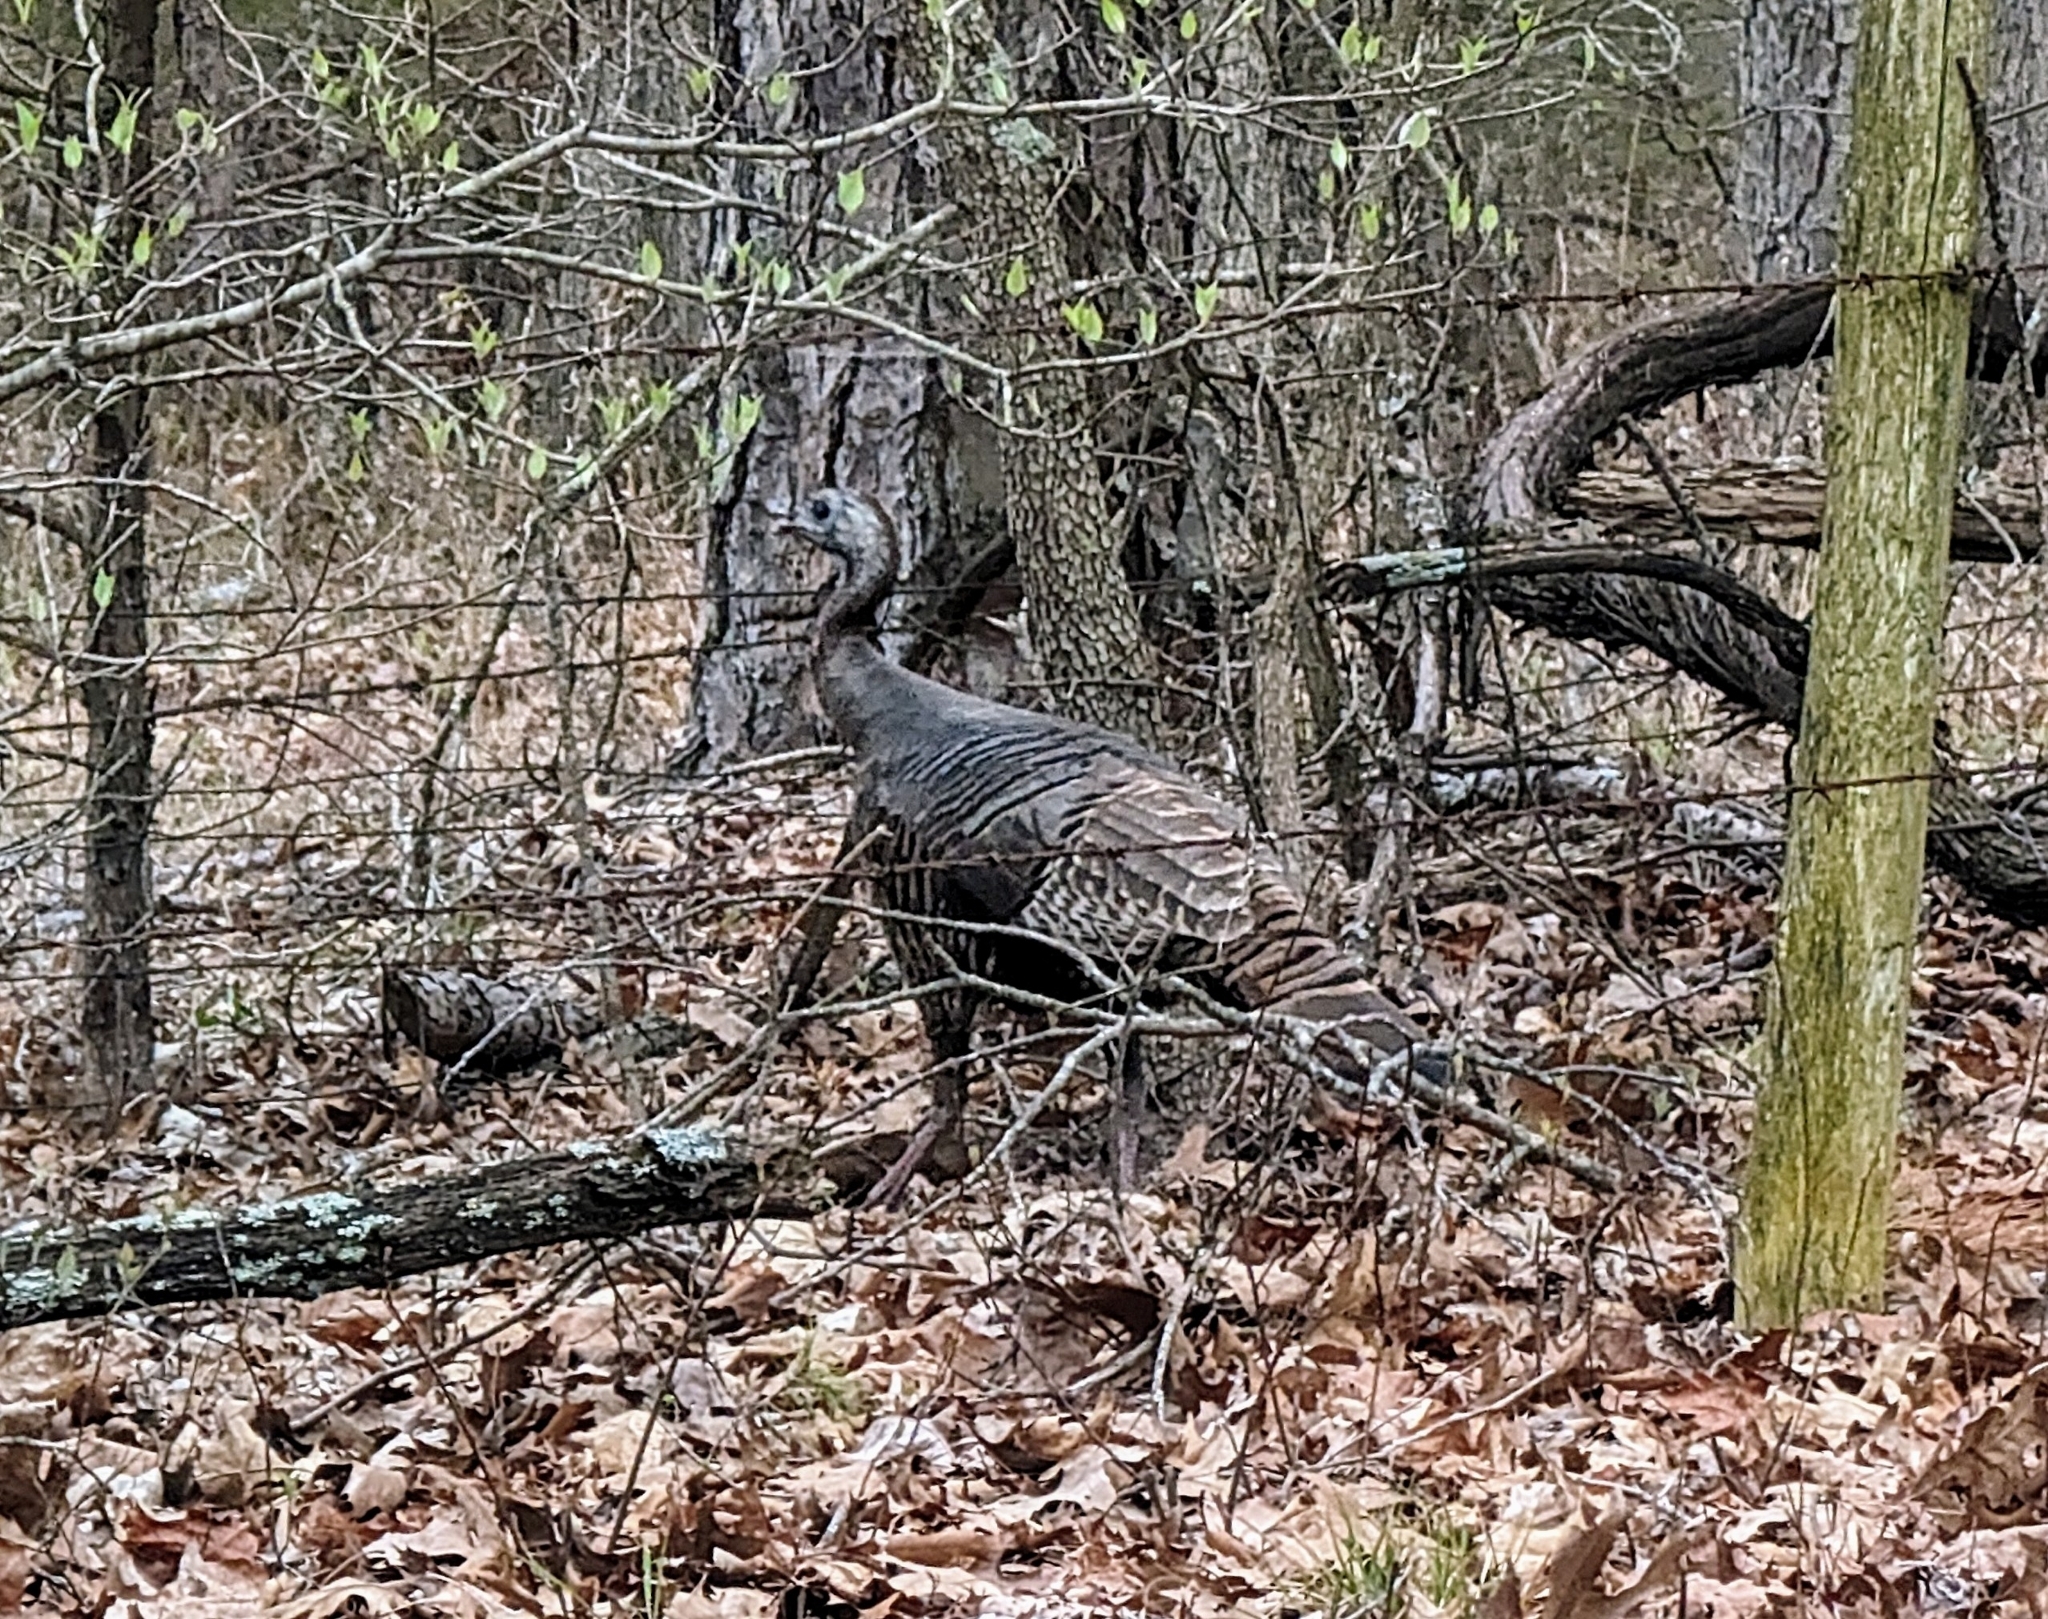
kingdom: Animalia
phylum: Chordata
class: Aves
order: Galliformes
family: Phasianidae
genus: Meleagris
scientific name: Meleagris gallopavo
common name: Wild turkey
